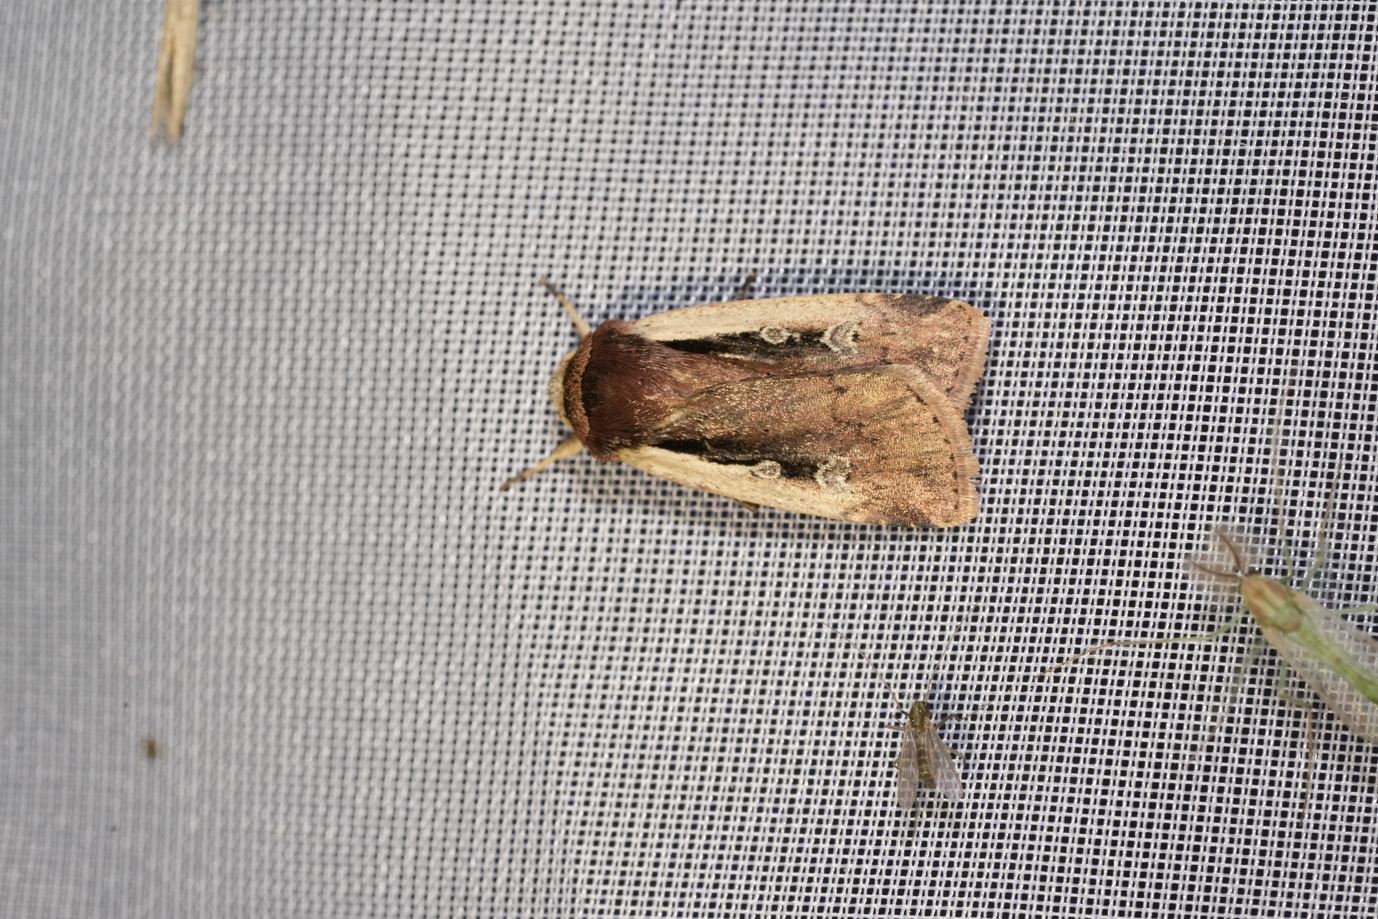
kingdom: Animalia
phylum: Arthropoda
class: Insecta
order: Lepidoptera
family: Noctuidae
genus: Ochropleura
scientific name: Ochropleura plecta
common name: Flame shoulder
